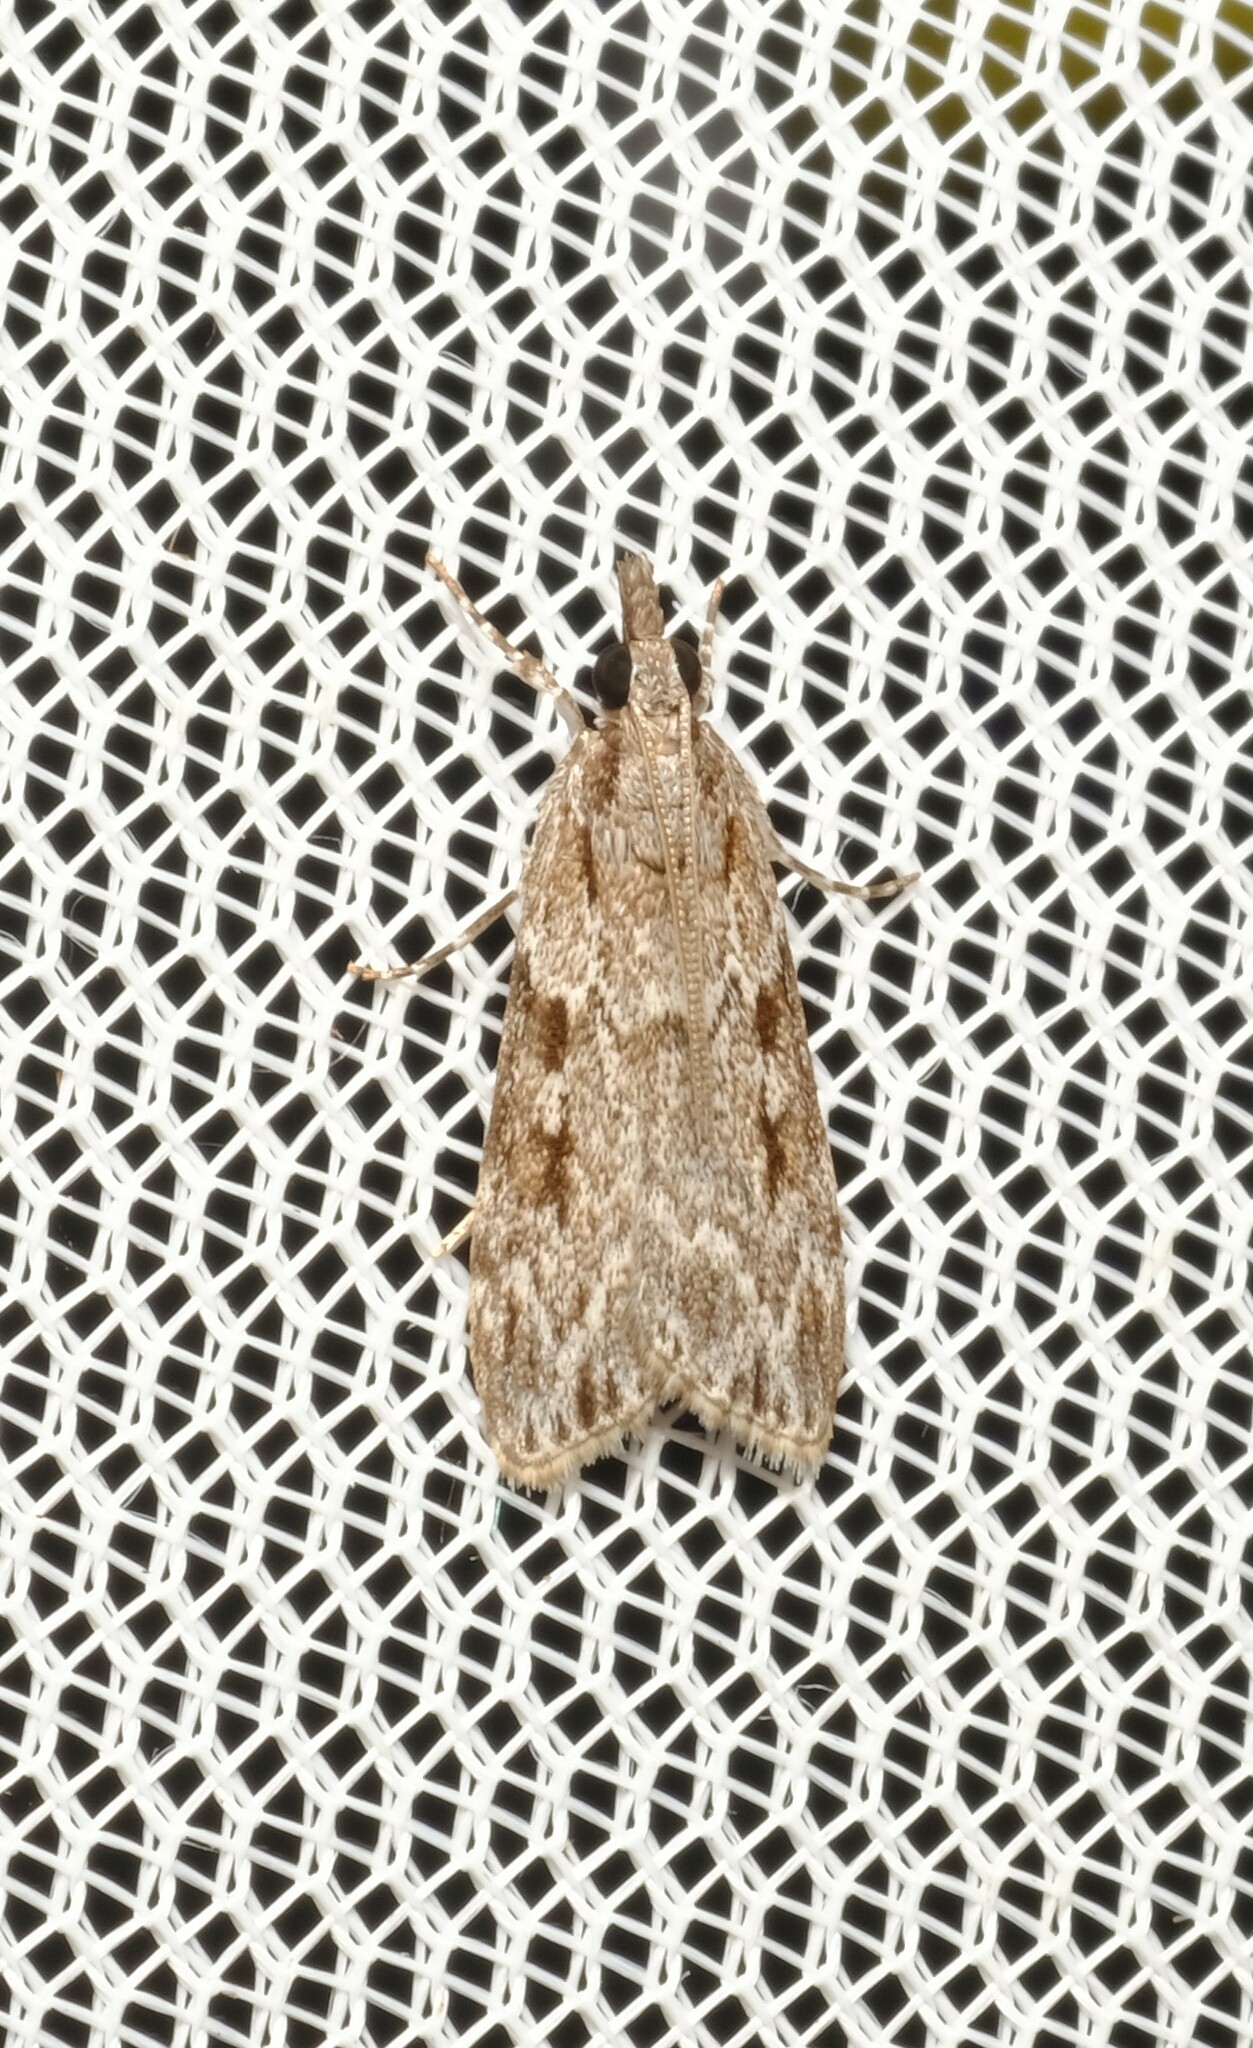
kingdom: Animalia
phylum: Arthropoda
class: Insecta
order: Lepidoptera
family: Crambidae
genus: Scoparia
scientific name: Scoparia ochrophara
